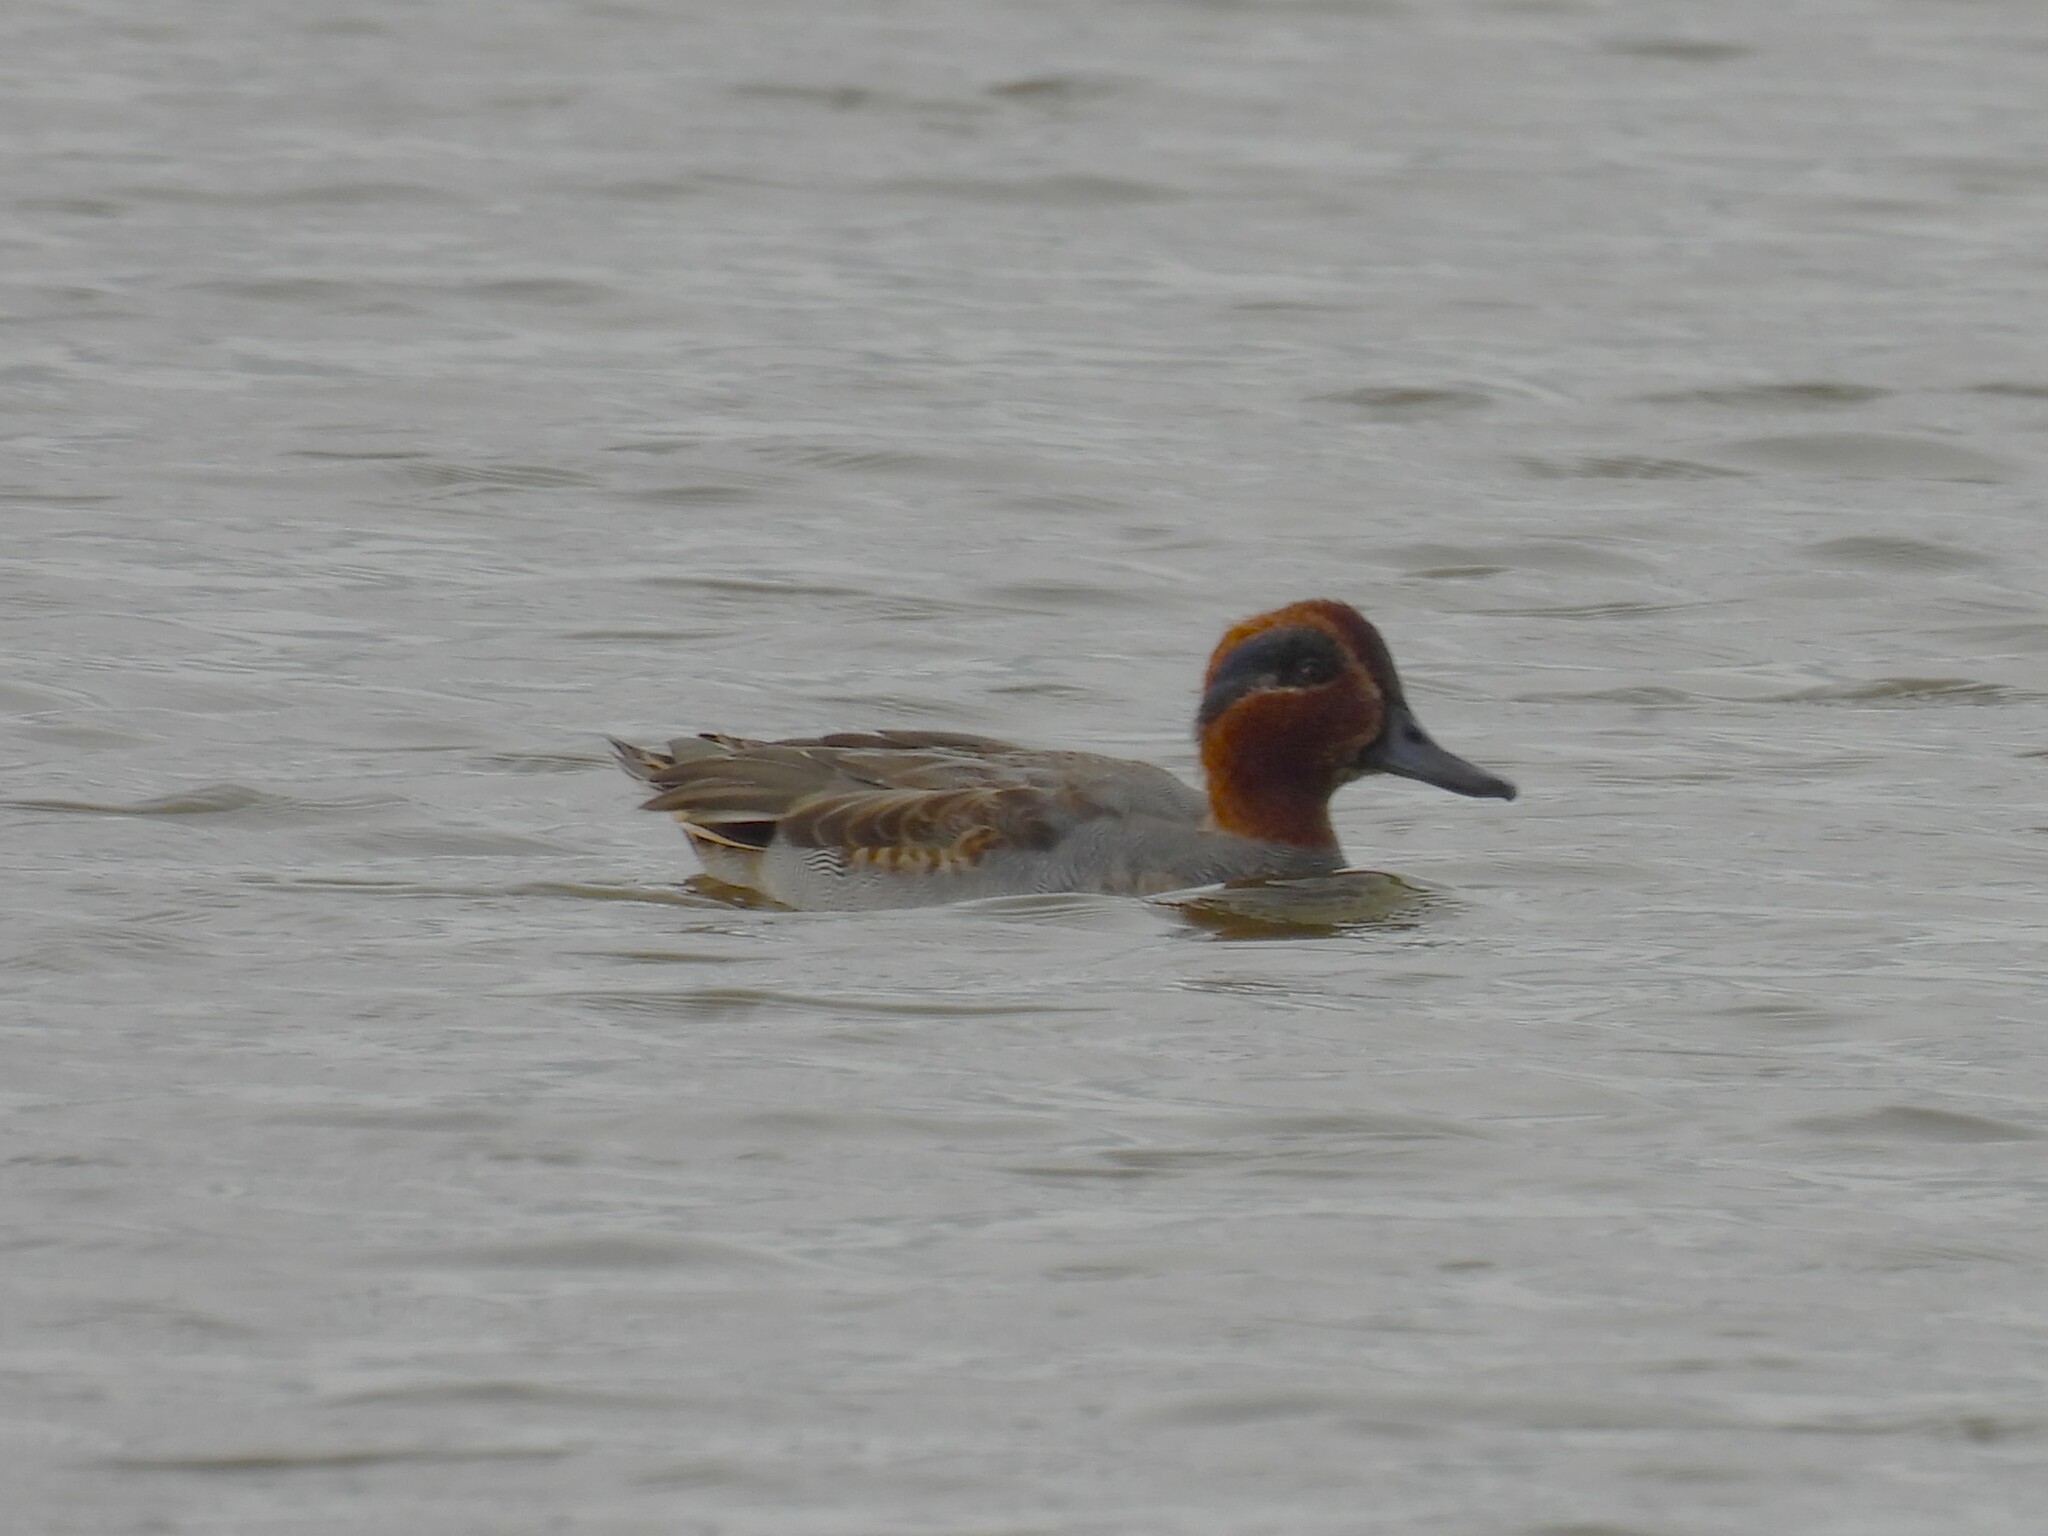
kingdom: Animalia
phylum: Chordata
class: Aves
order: Anseriformes
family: Anatidae
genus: Anas
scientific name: Anas crecca
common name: Eurasian teal
